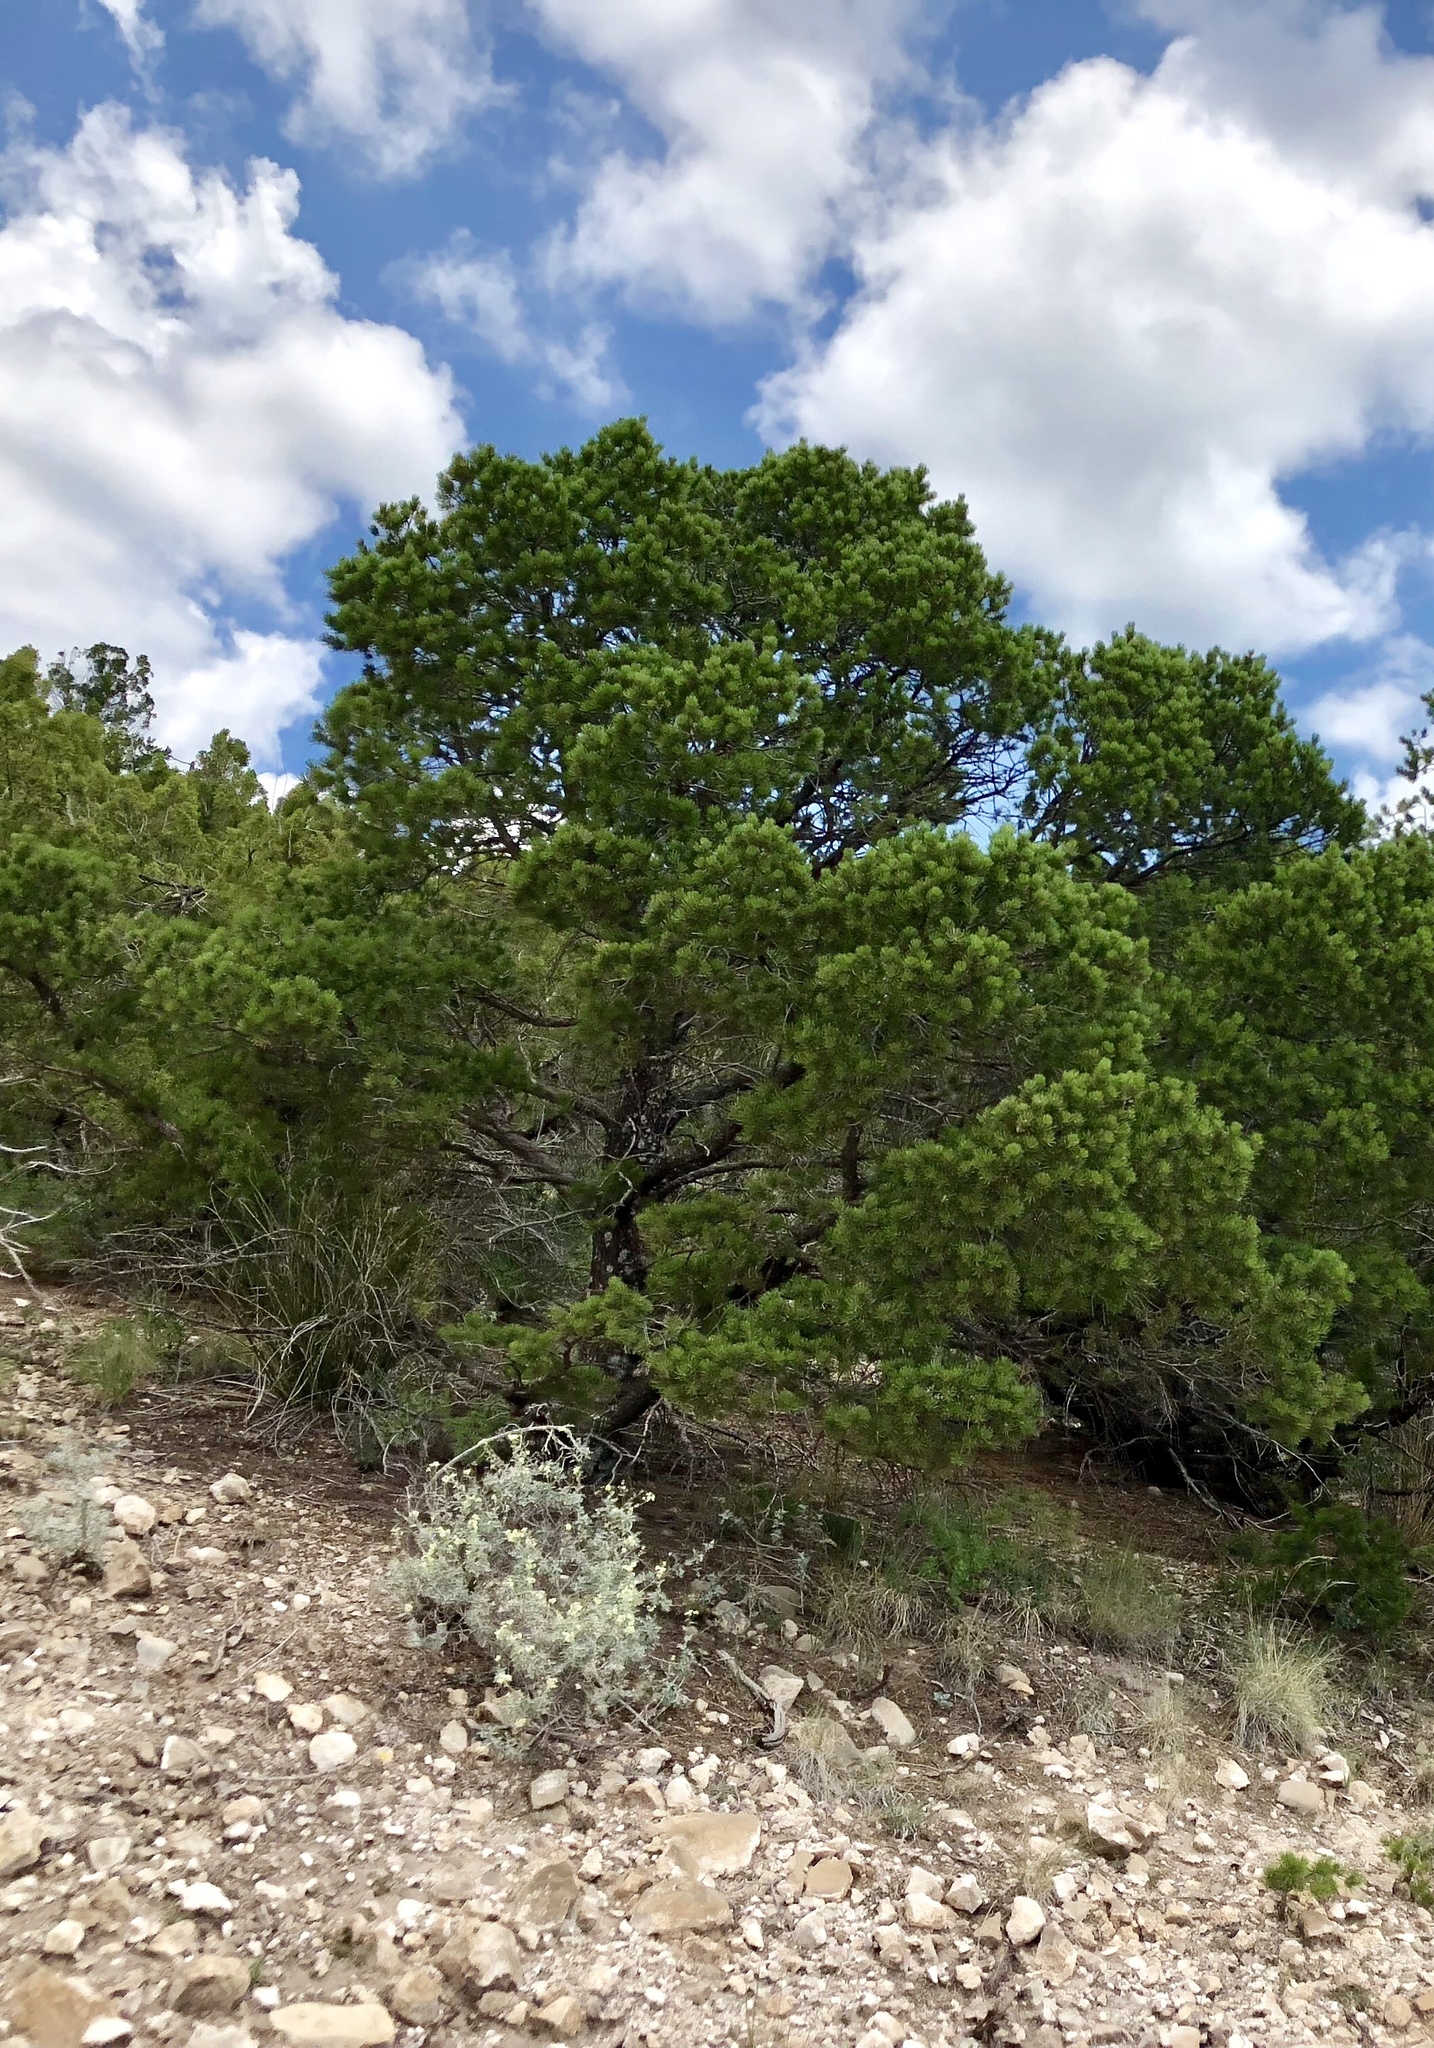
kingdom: Plantae
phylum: Tracheophyta
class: Pinopsida
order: Pinales
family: Pinaceae
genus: Pinus
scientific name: Pinus edulis
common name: Colorado pinyon
